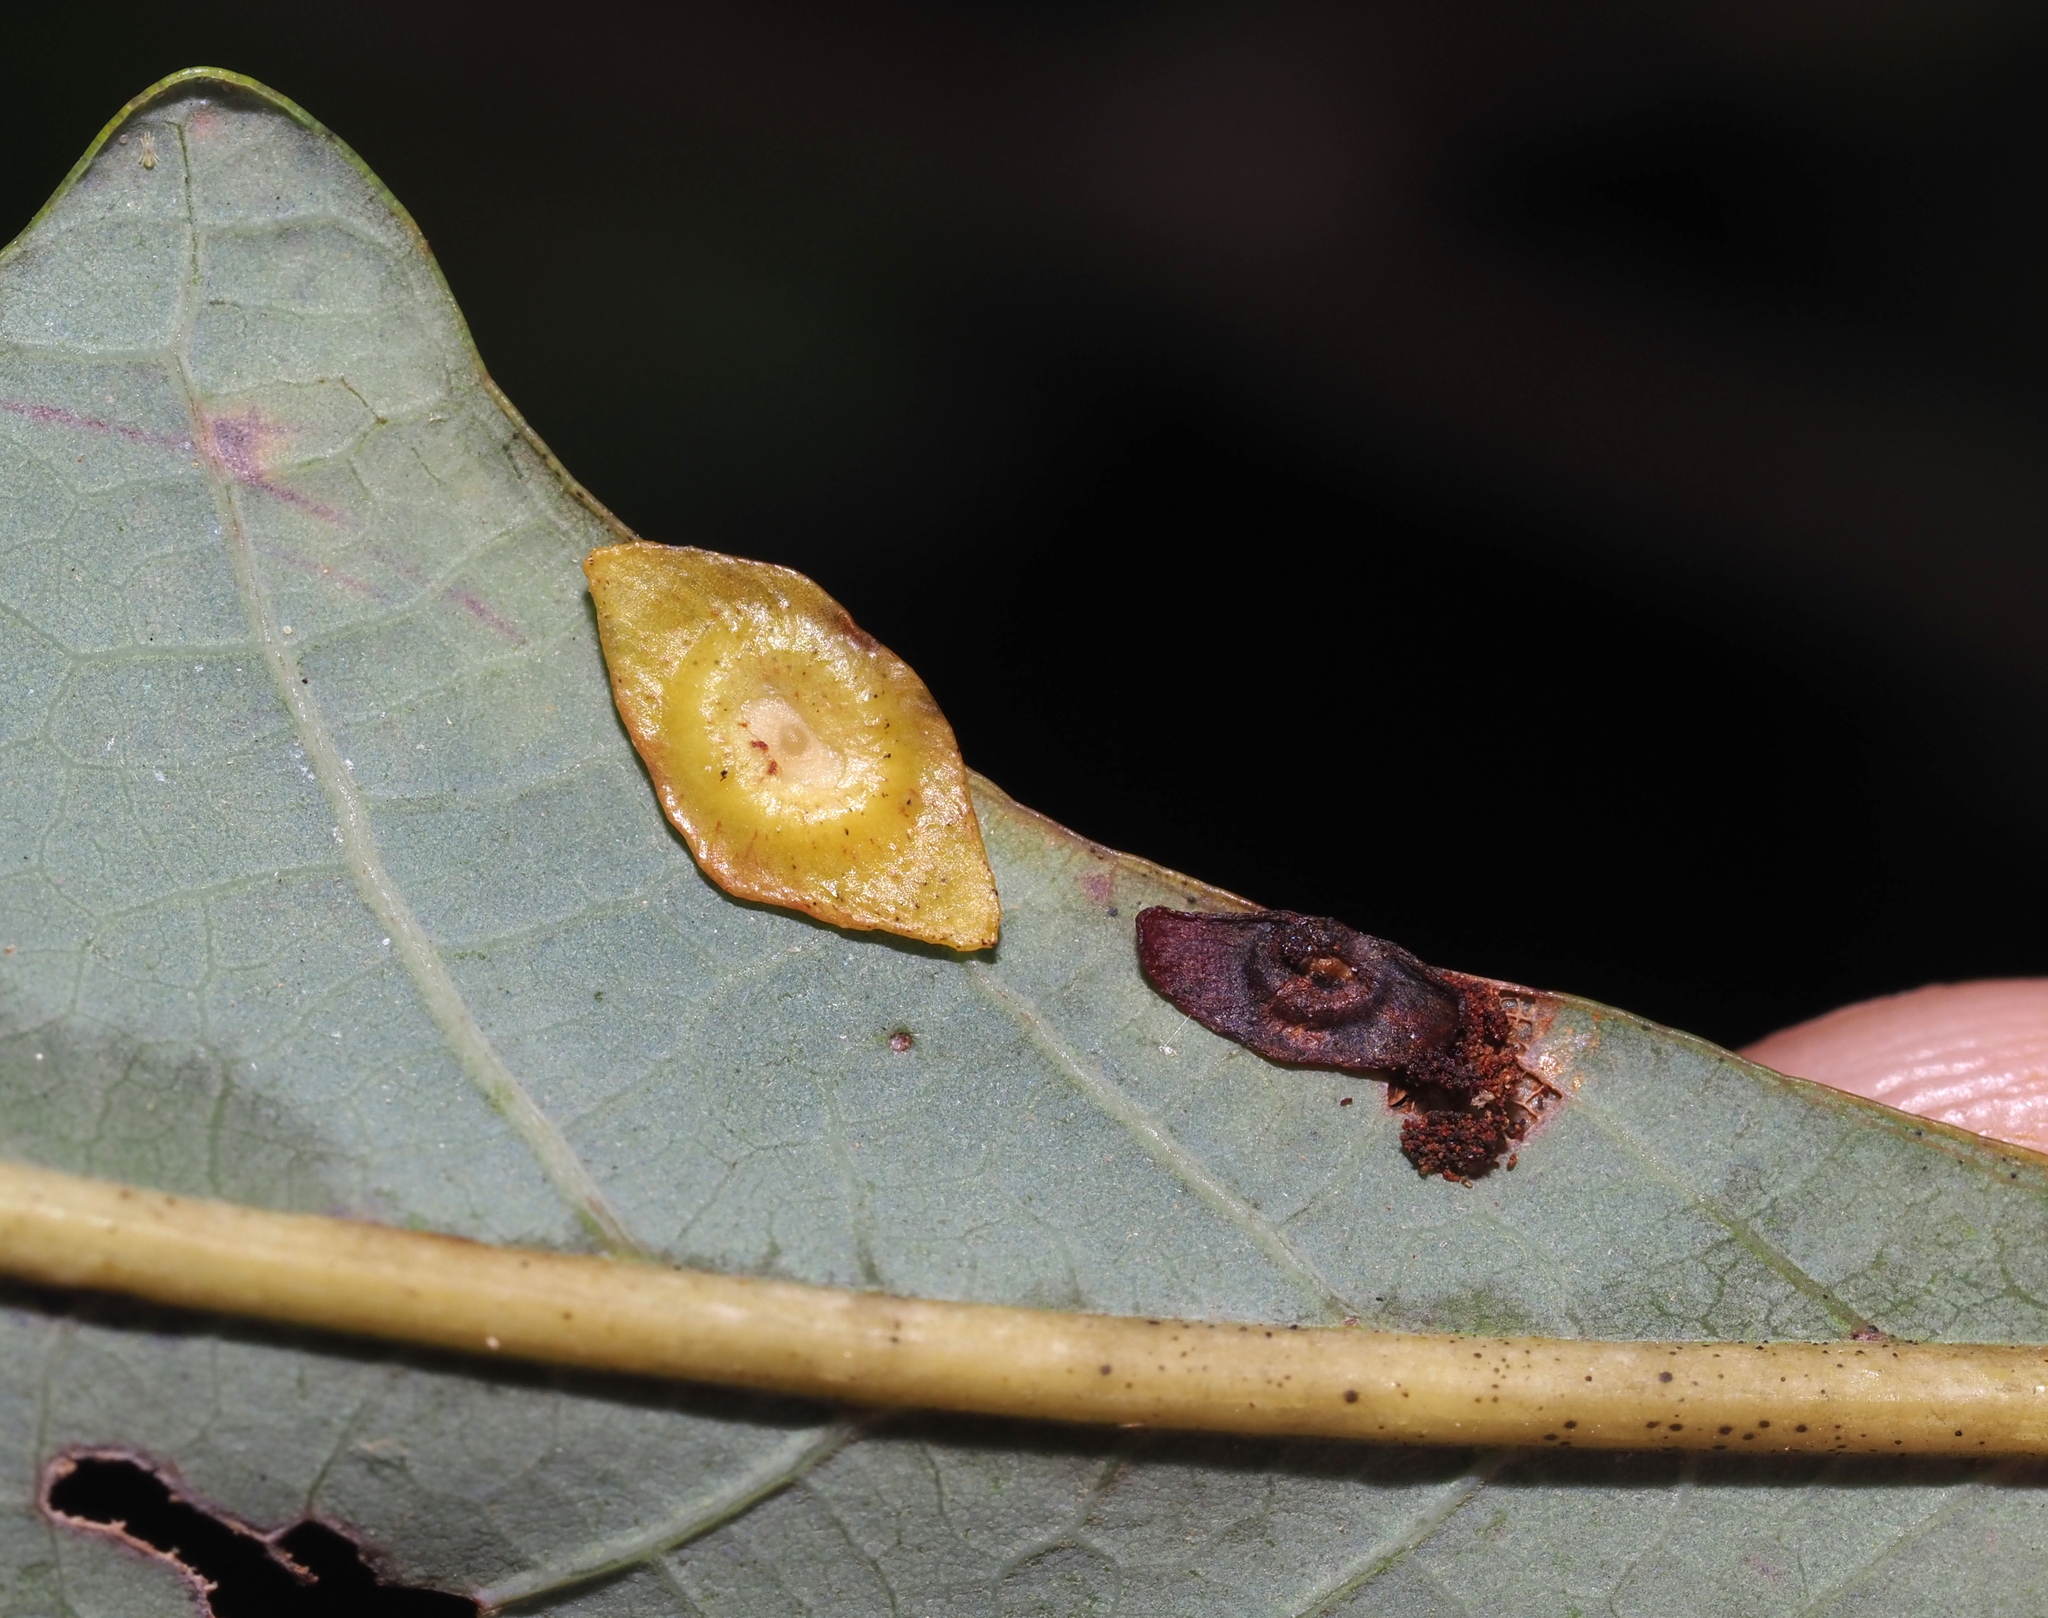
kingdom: Animalia
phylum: Arthropoda
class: Insecta
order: Hymenoptera
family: Cynipidae
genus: Phylloteras
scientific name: Phylloteras
